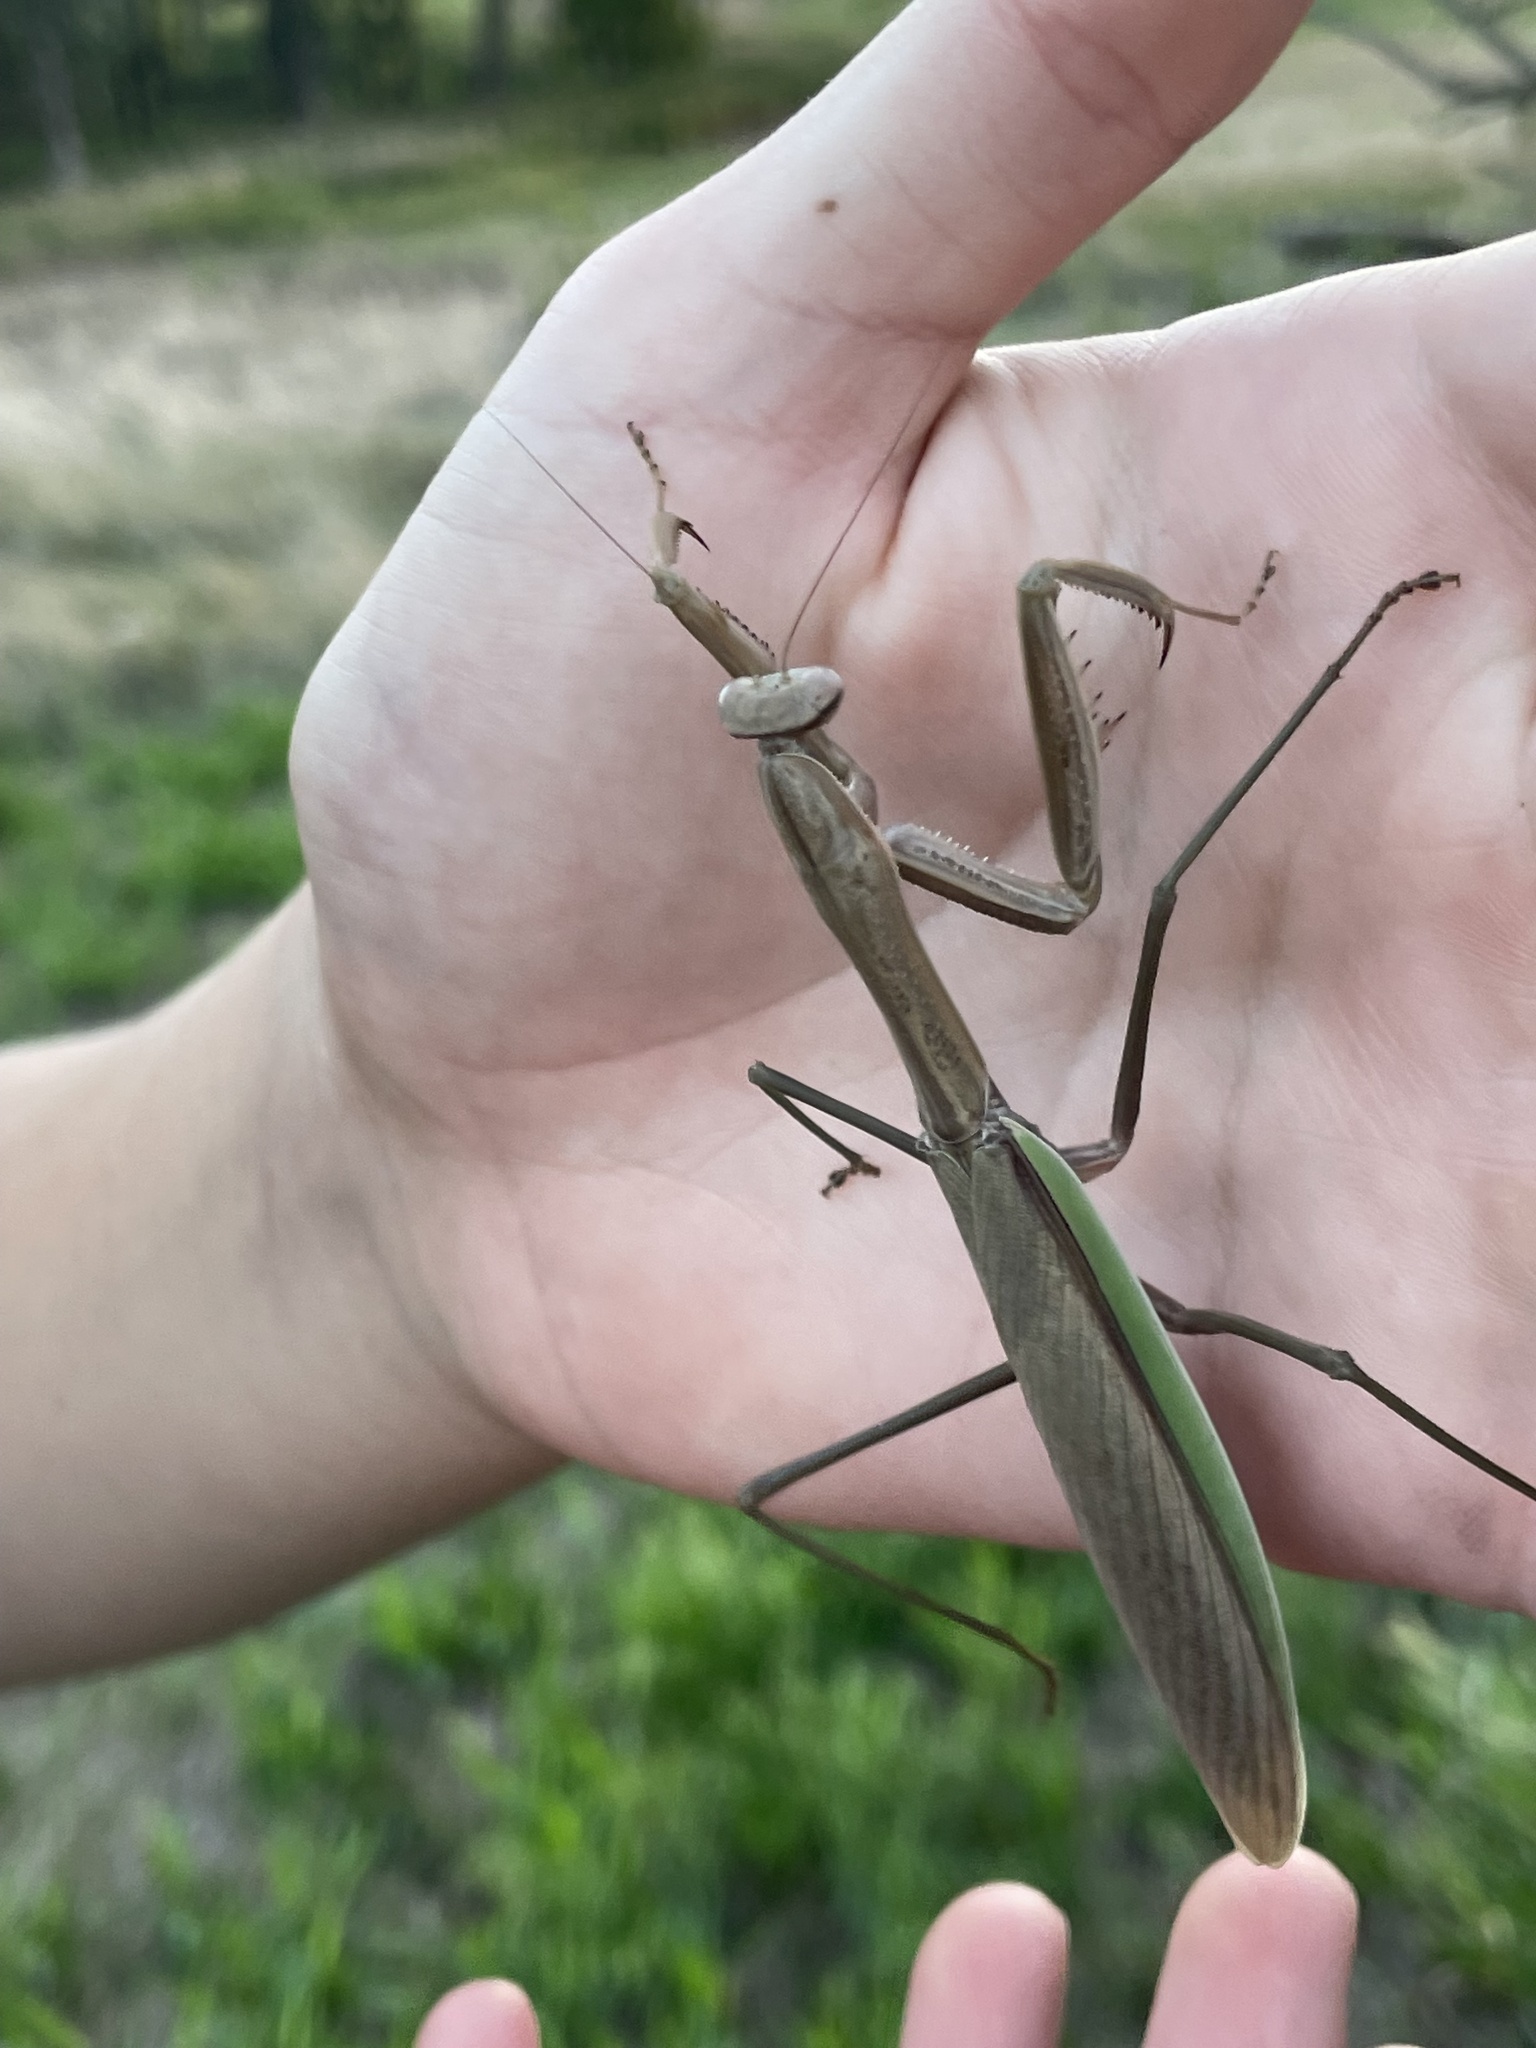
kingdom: Animalia
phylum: Arthropoda
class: Insecta
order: Mantodea
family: Mantidae
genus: Tenodera
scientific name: Tenodera sinensis
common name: Chinese mantis
